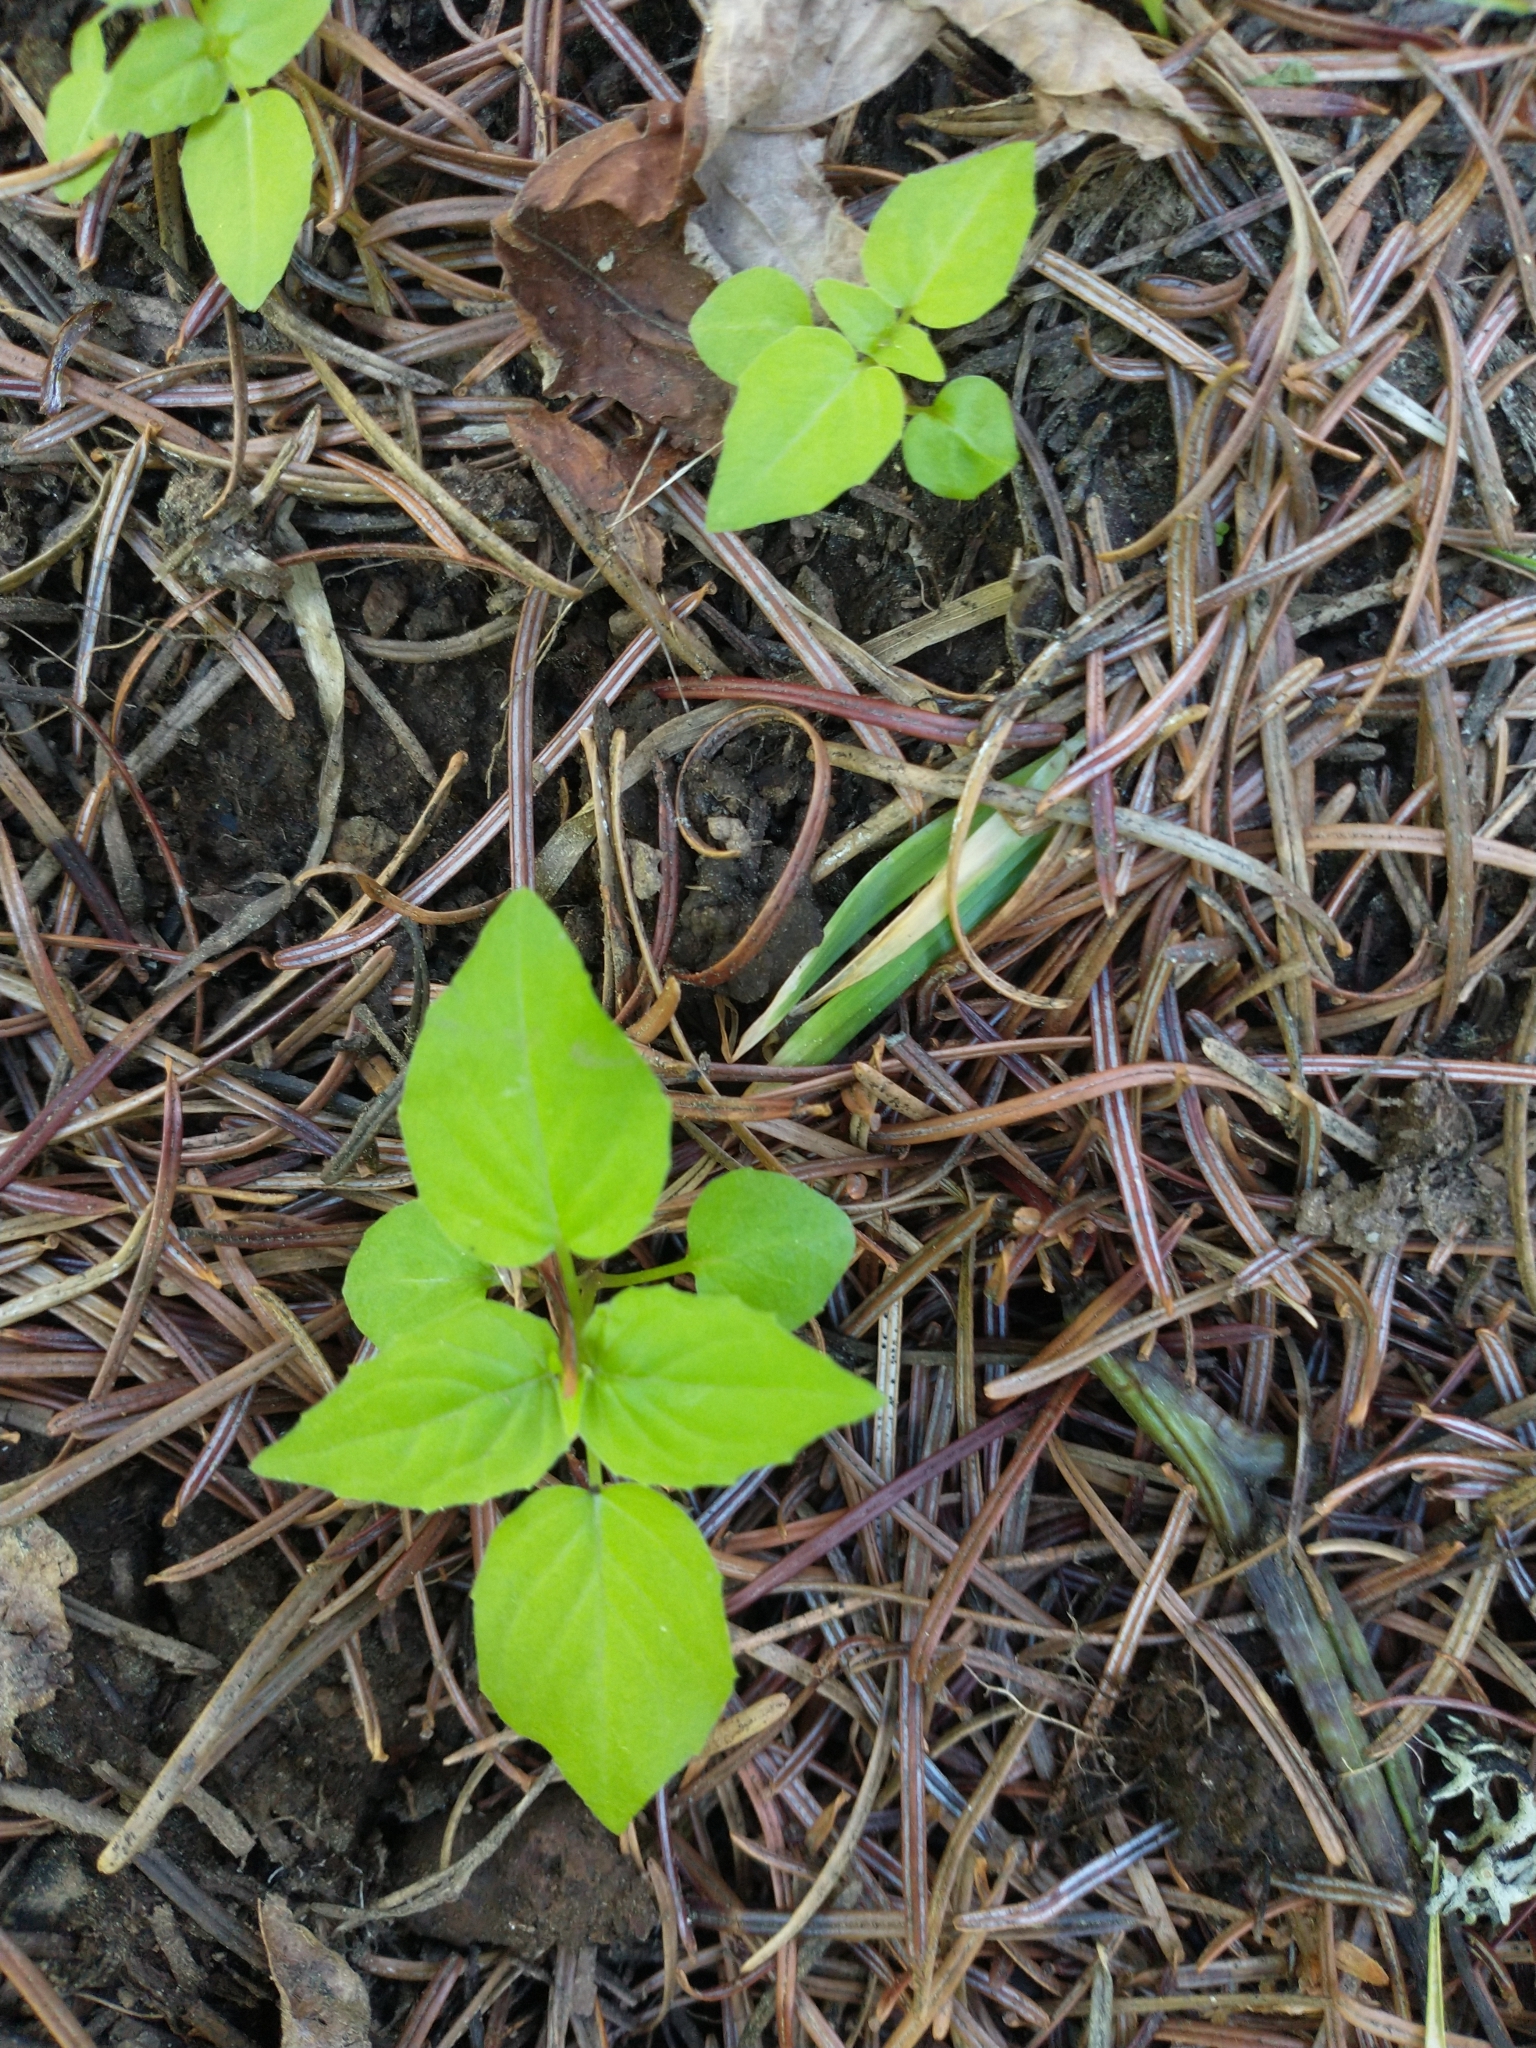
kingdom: Plantae
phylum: Tracheophyta
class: Magnoliopsida
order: Myrtales
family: Onagraceae
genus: Circaea
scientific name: Circaea alpina
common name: Alpine enchanter's-nightshade
